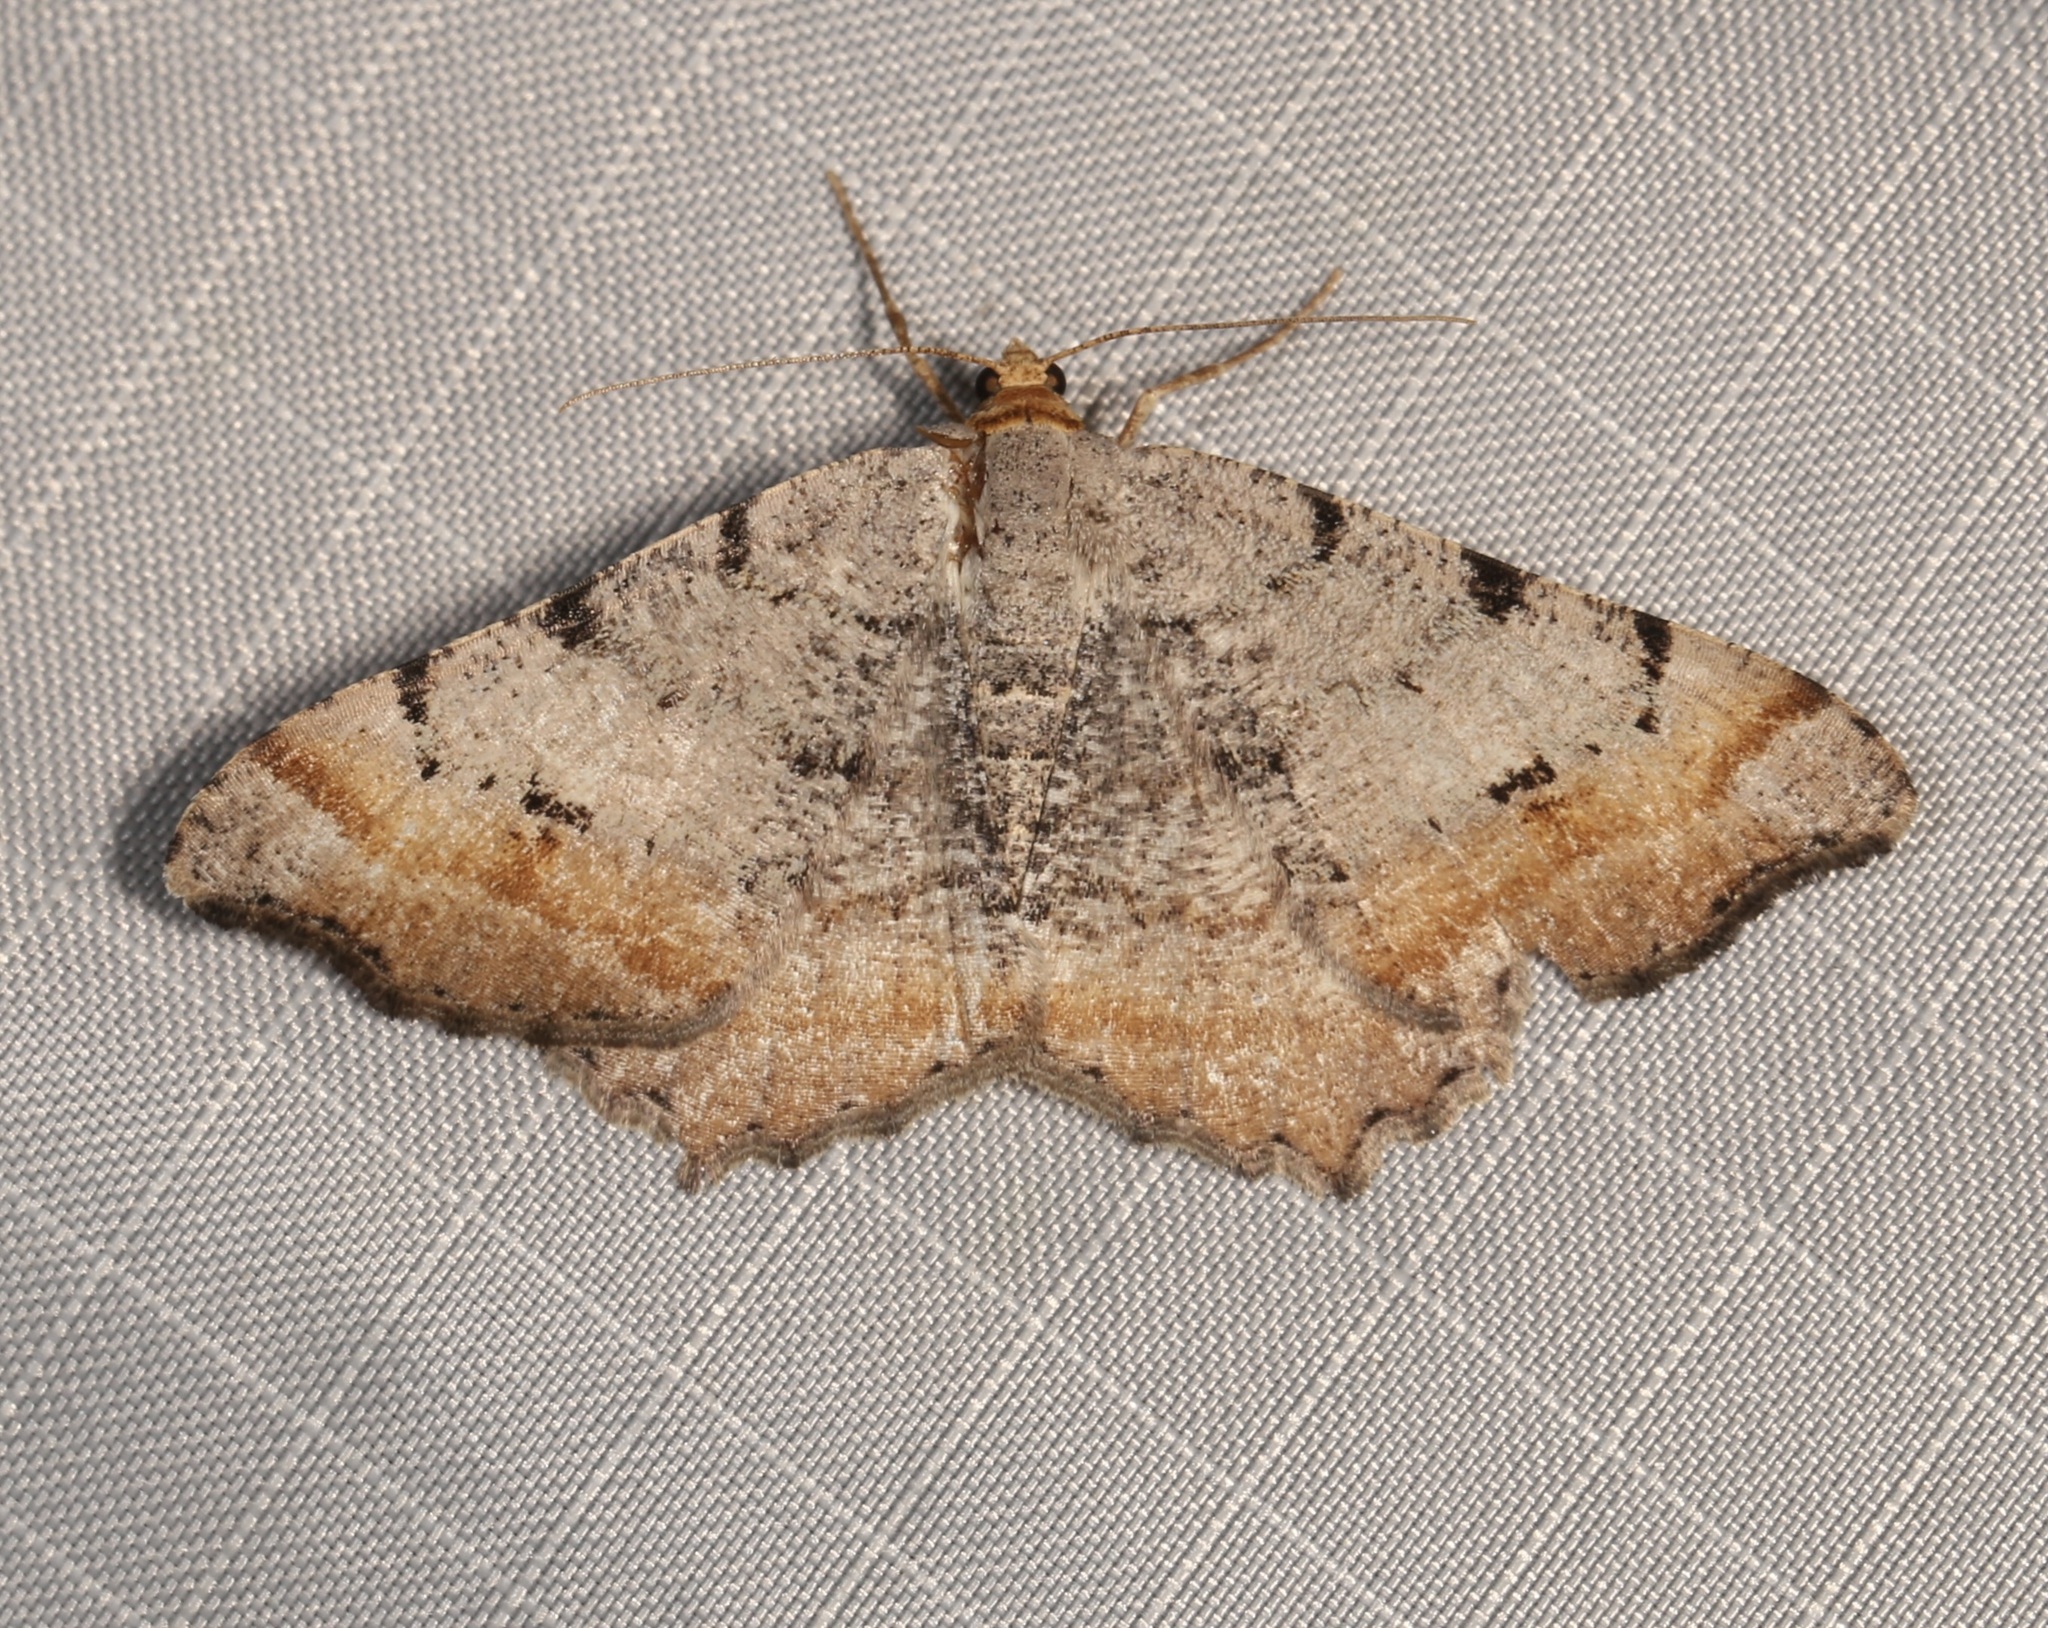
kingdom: Animalia
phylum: Arthropoda
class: Insecta
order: Lepidoptera
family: Geometridae
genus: Macaria
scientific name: Macaria adonis
